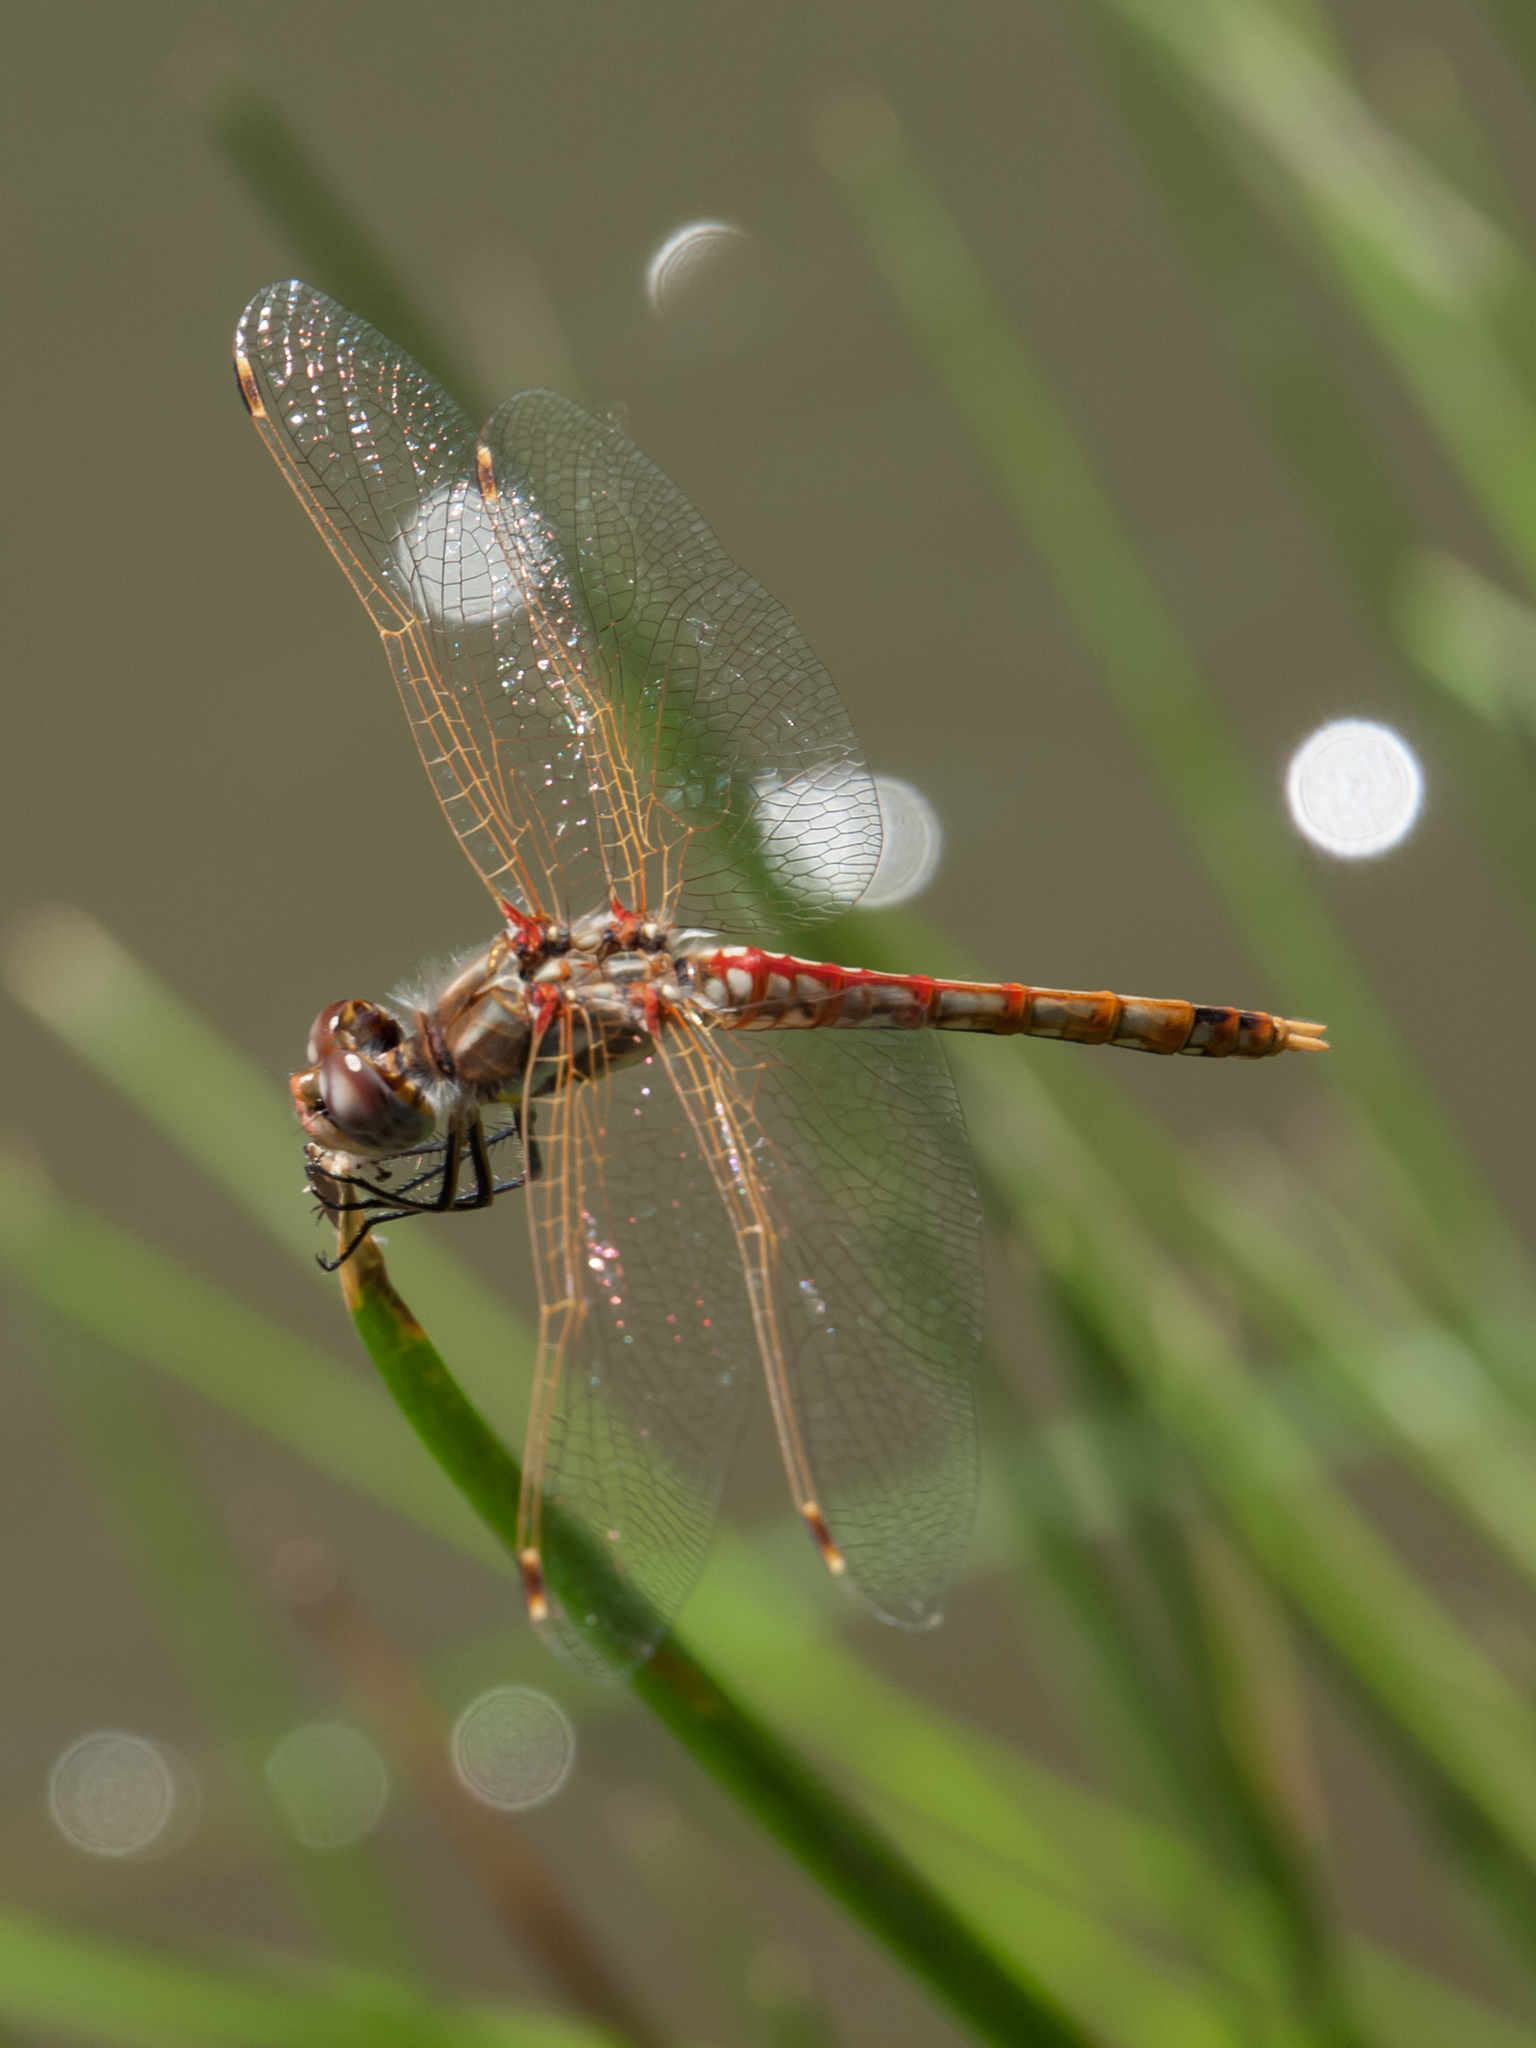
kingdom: Animalia
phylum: Arthropoda
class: Insecta
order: Odonata
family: Libellulidae
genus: Sympetrum
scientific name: Sympetrum corruptum
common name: Variegated meadowhawk
